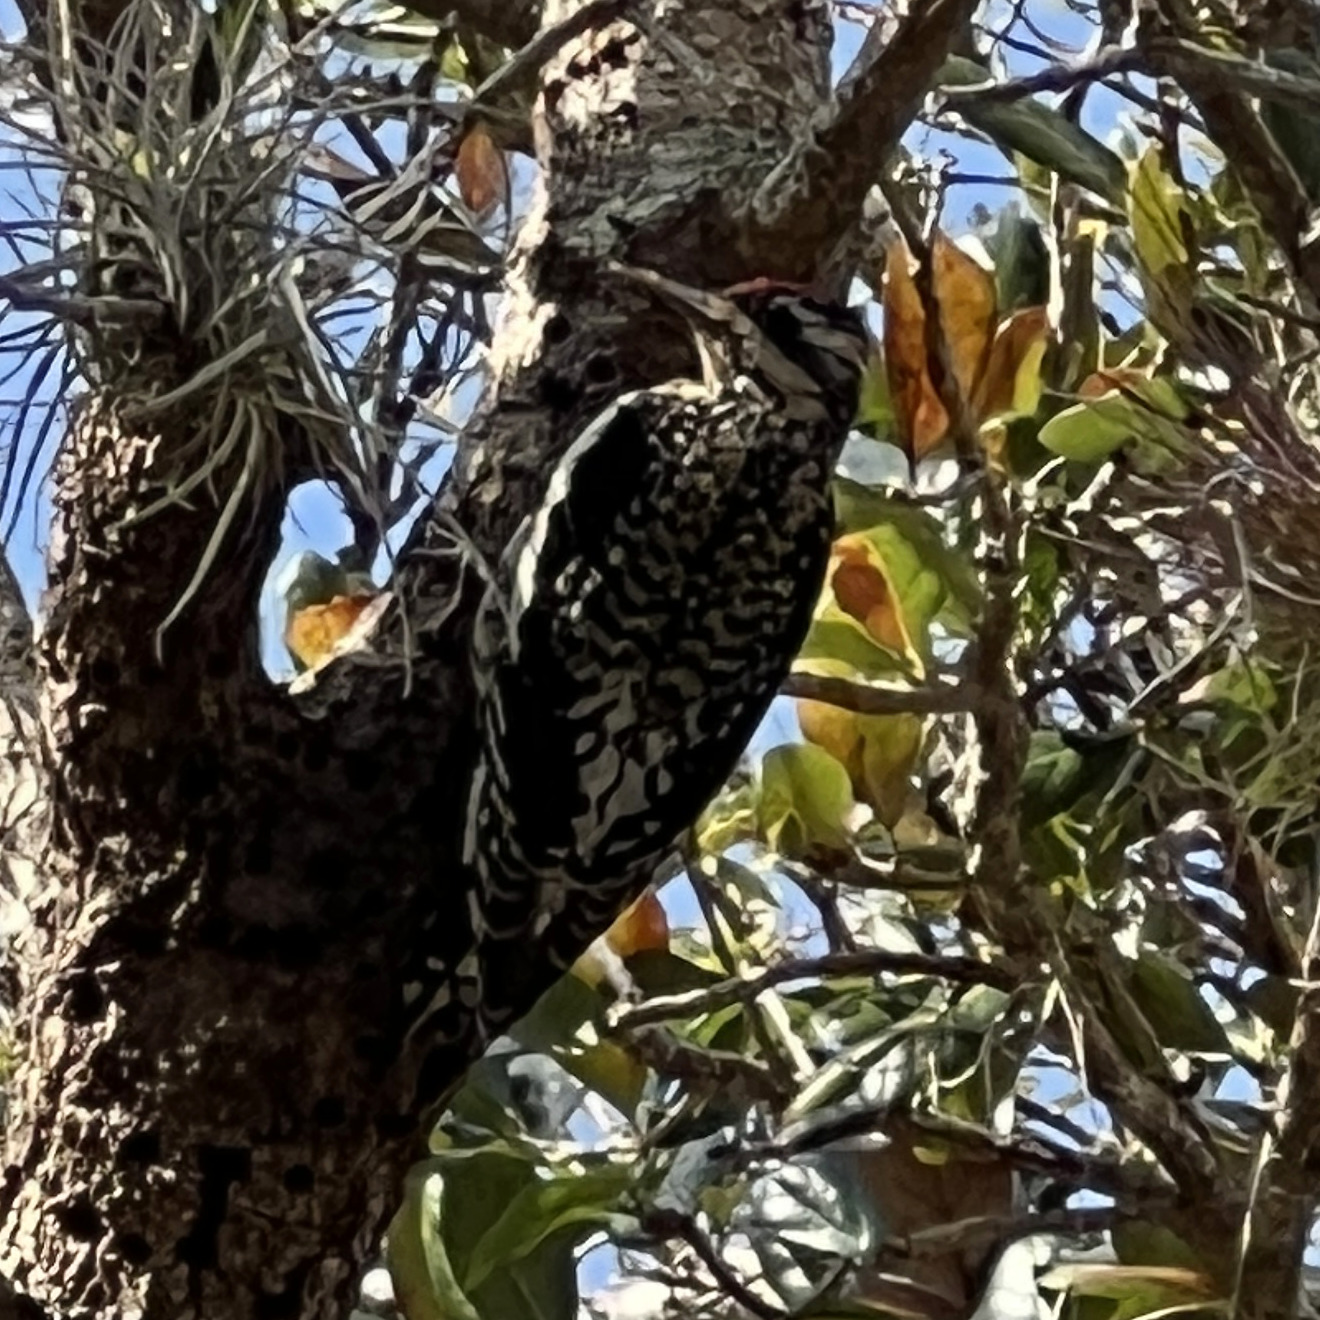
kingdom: Animalia
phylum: Chordata
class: Aves
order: Piciformes
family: Picidae
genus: Sphyrapicus
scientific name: Sphyrapicus varius
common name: Yellow-bellied sapsucker
